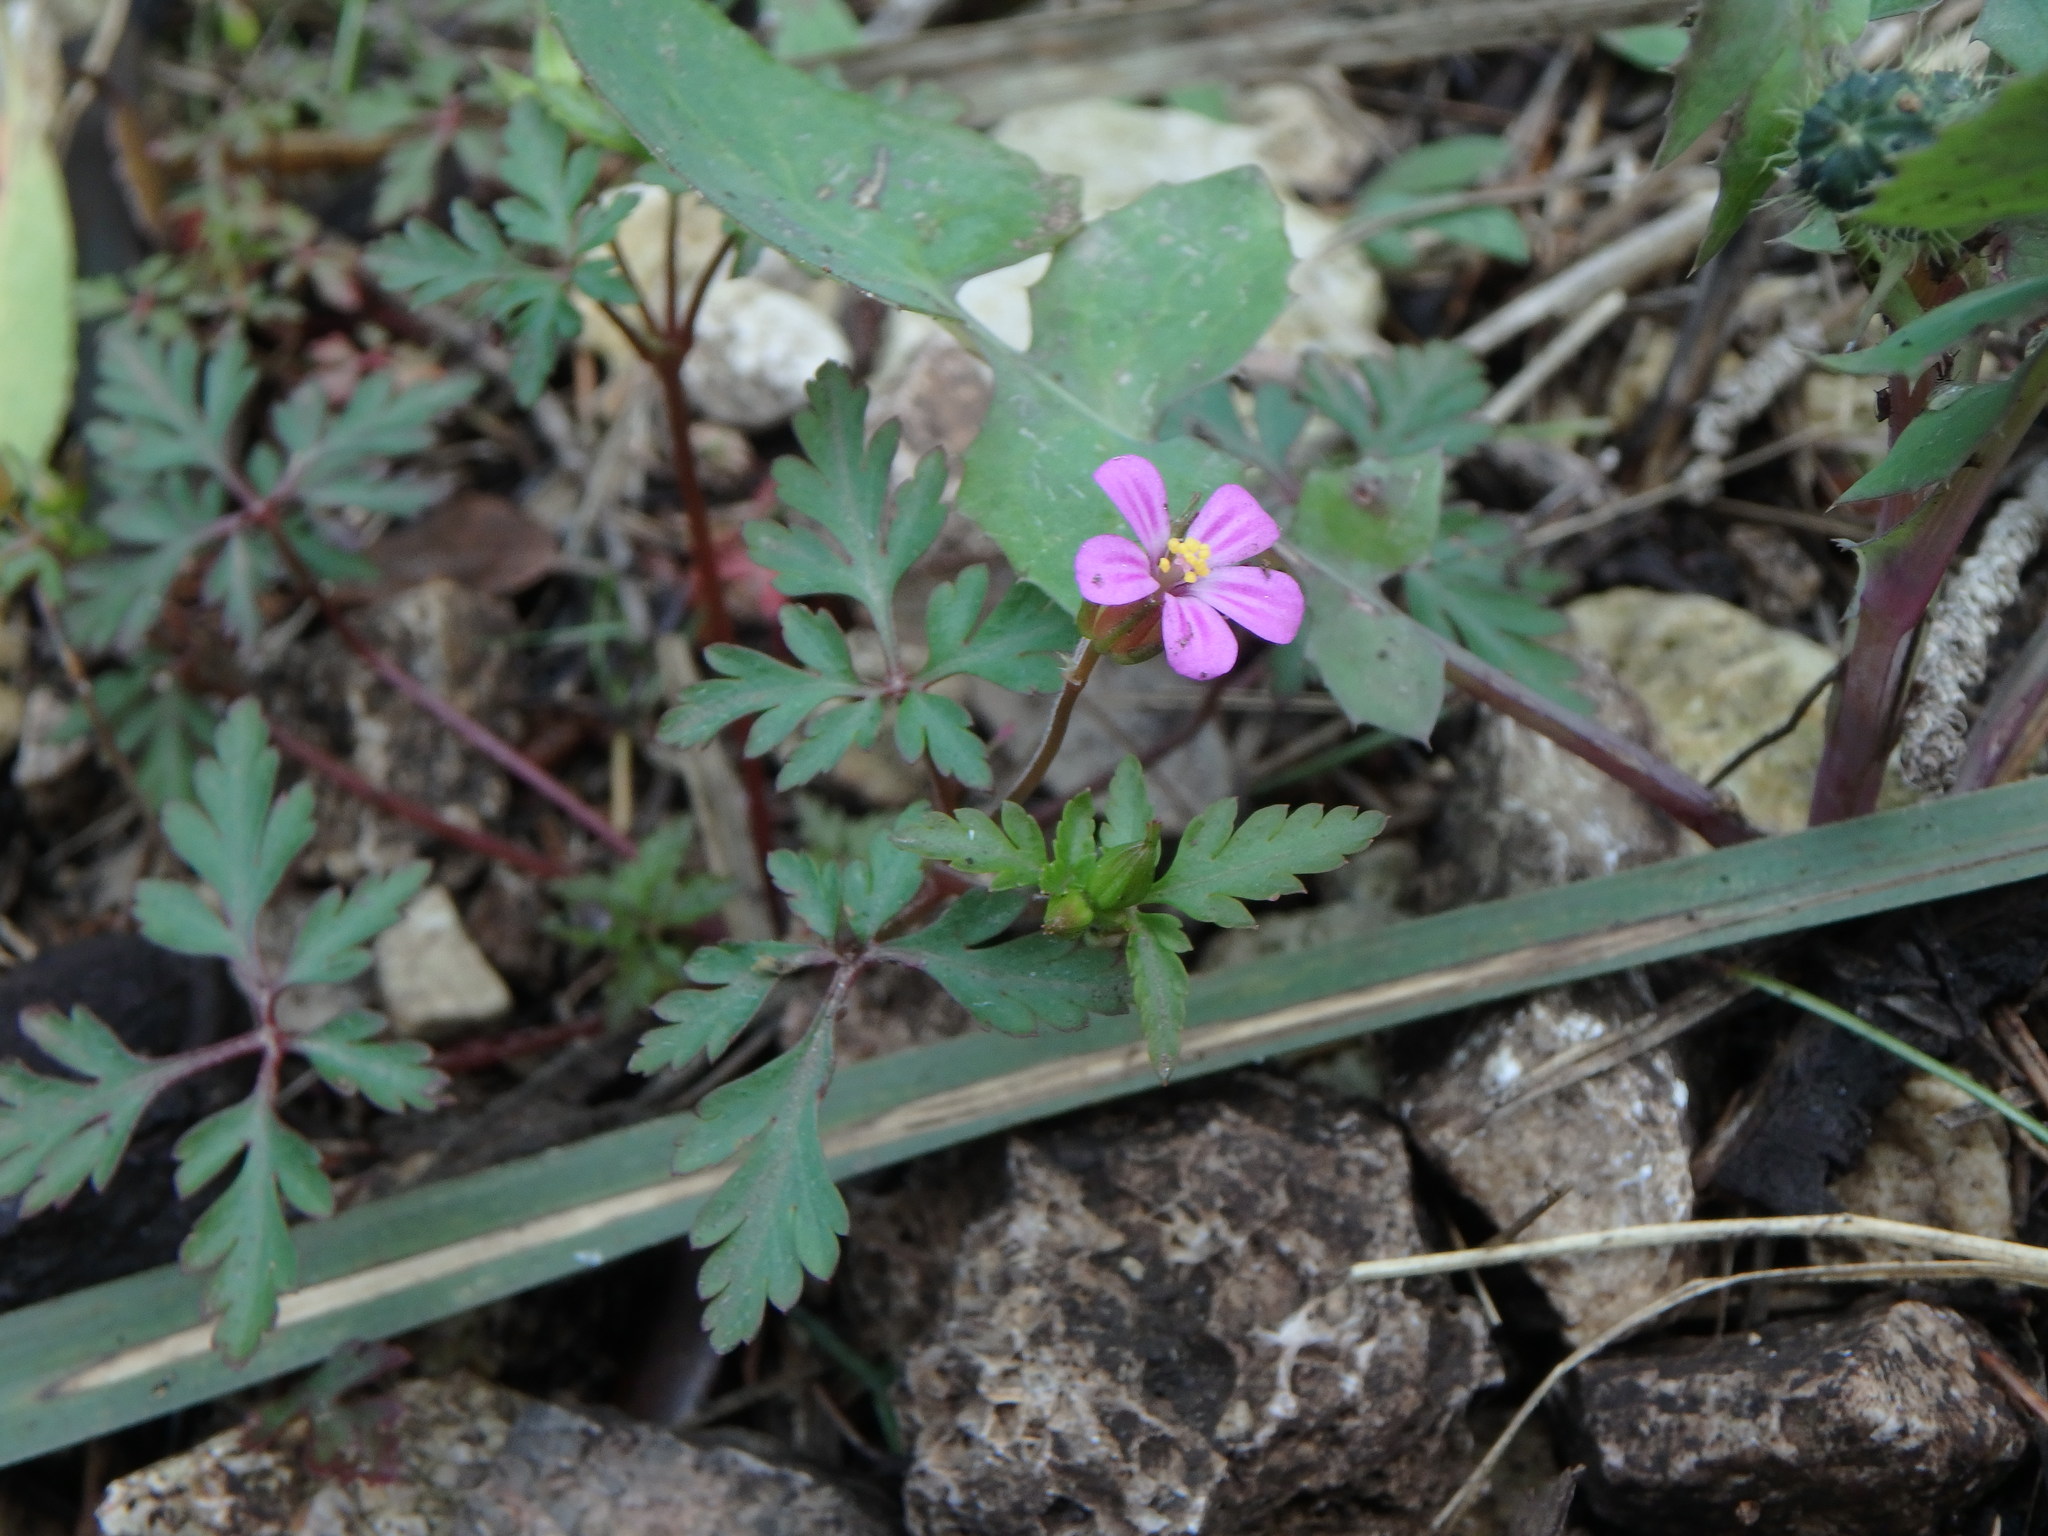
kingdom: Plantae
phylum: Tracheophyta
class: Magnoliopsida
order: Geraniales
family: Geraniaceae
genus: Geranium
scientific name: Geranium purpureum
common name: Little-robin
